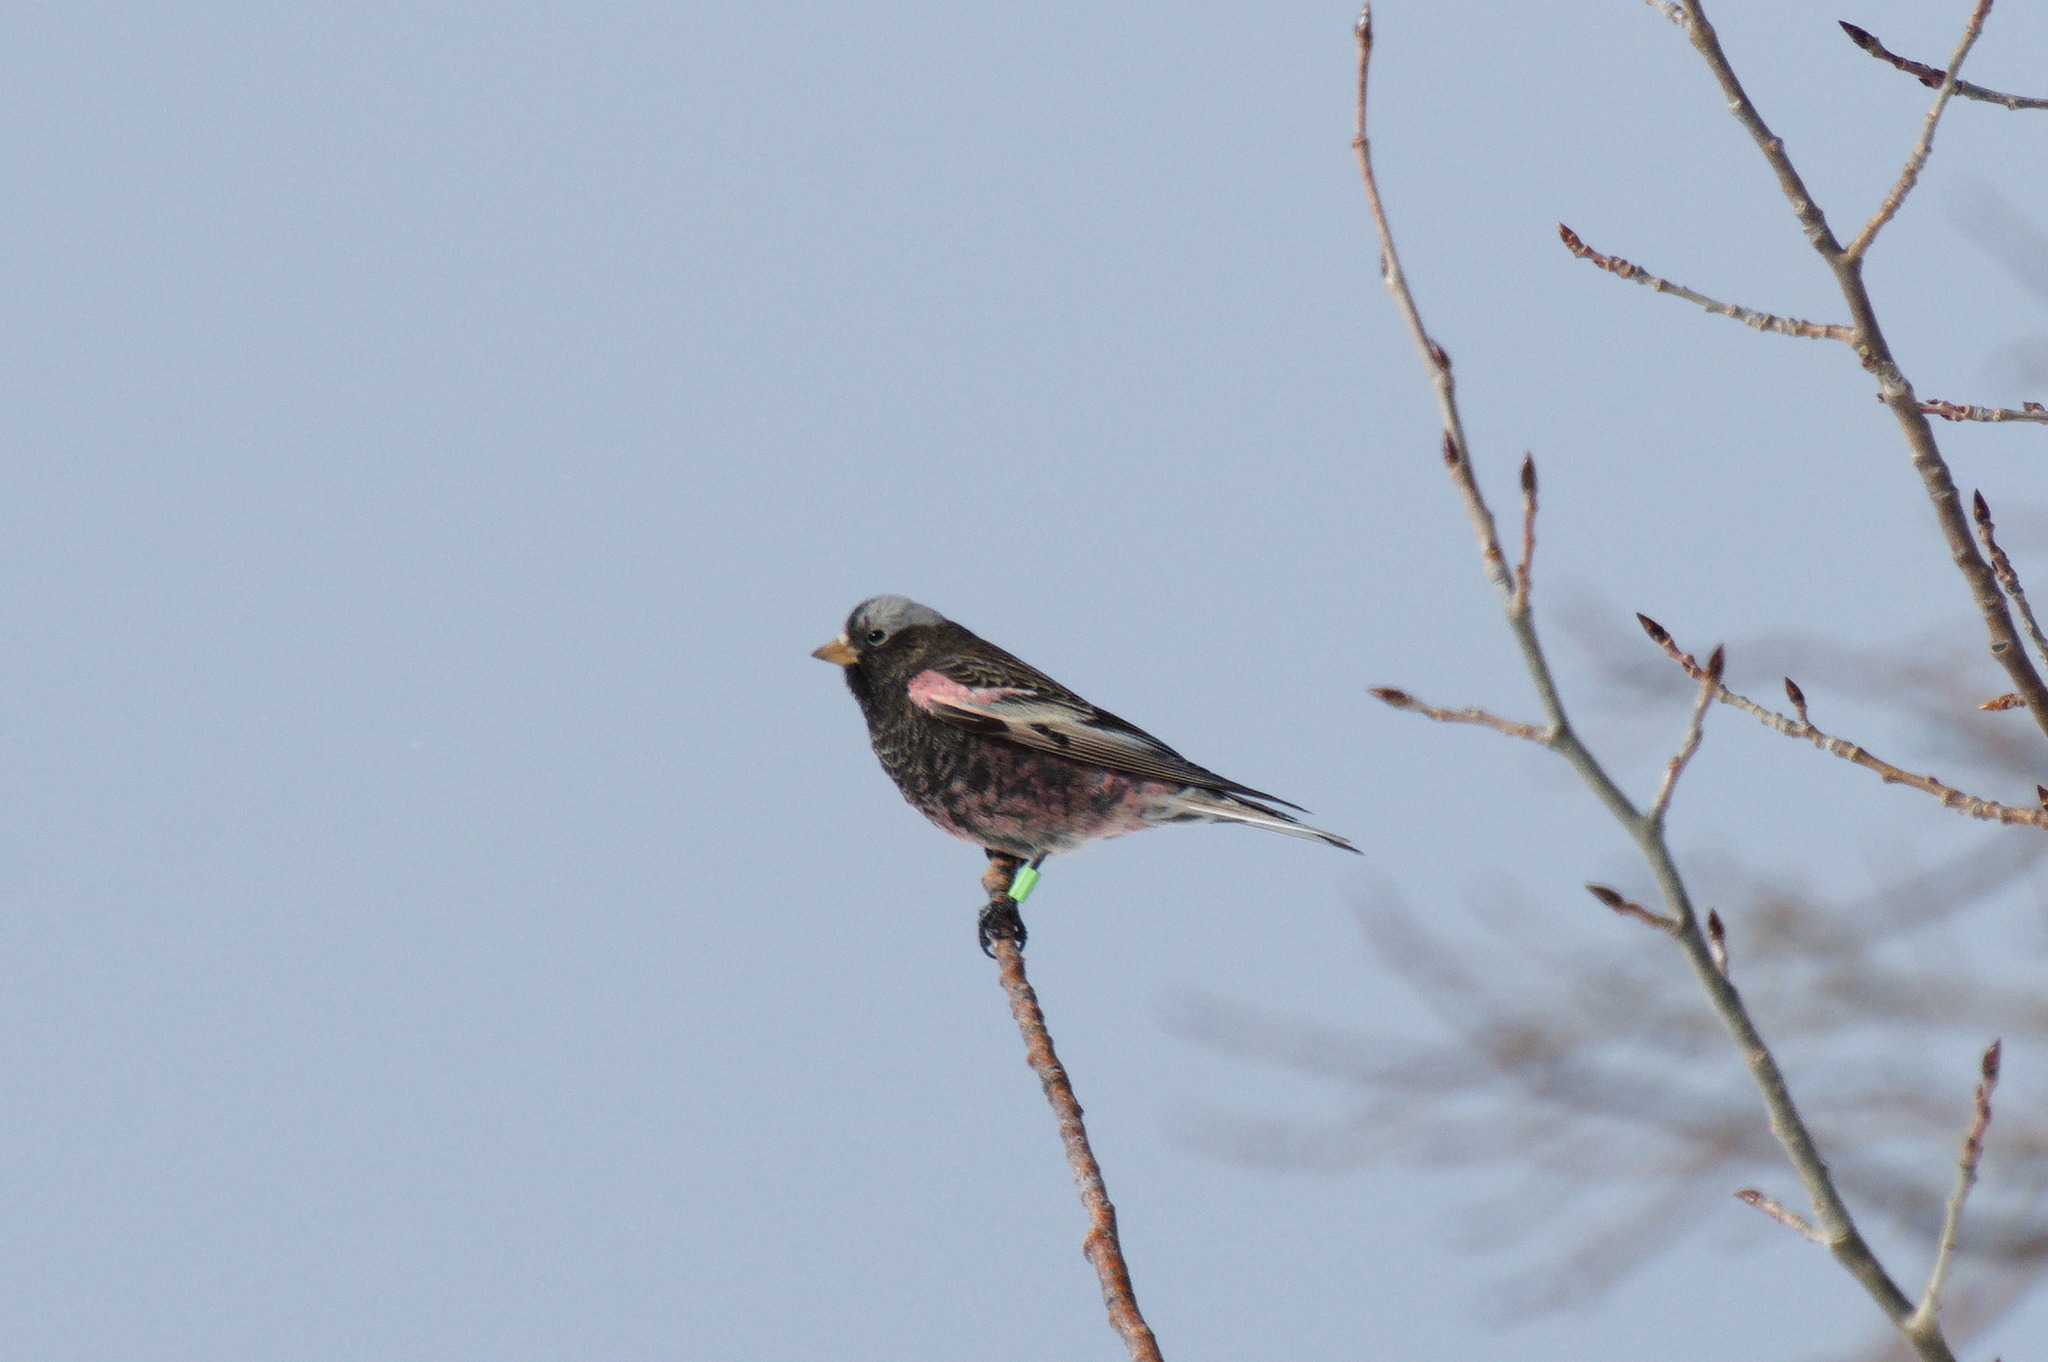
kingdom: Animalia
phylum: Chordata
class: Aves
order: Passeriformes
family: Fringillidae
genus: Leucosticte
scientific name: Leucosticte atrata
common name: Black rosy-finch
